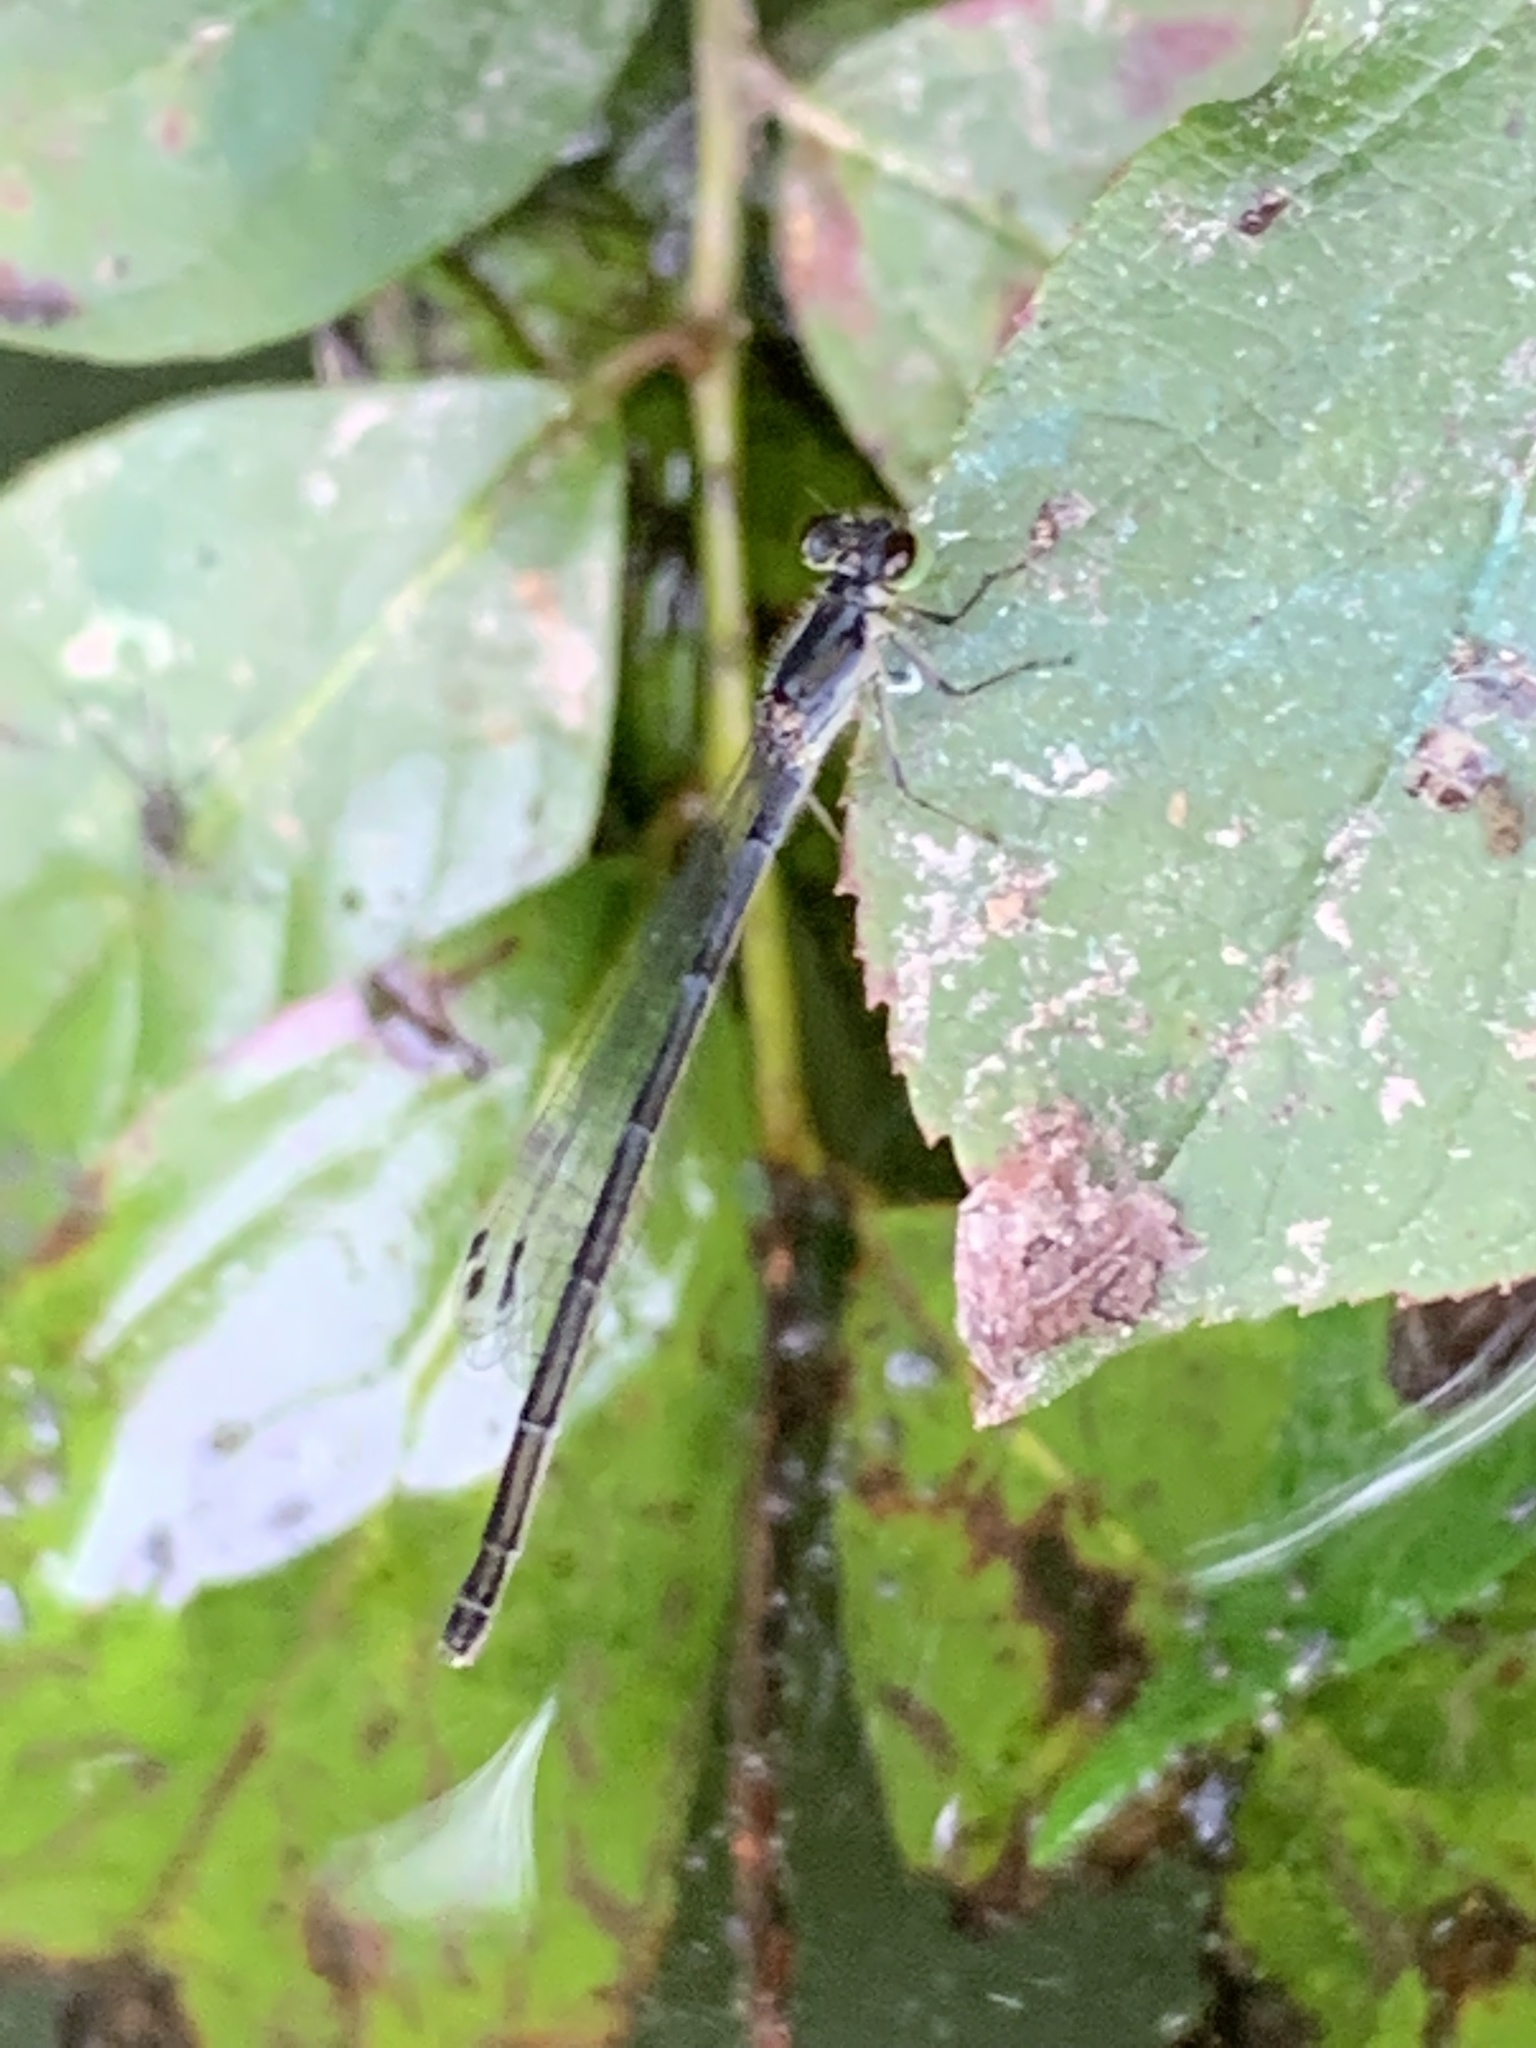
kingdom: Animalia
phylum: Arthropoda
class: Insecta
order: Odonata
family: Coenagrionidae
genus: Ischnura
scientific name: Ischnura posita
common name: Fragile forktail
